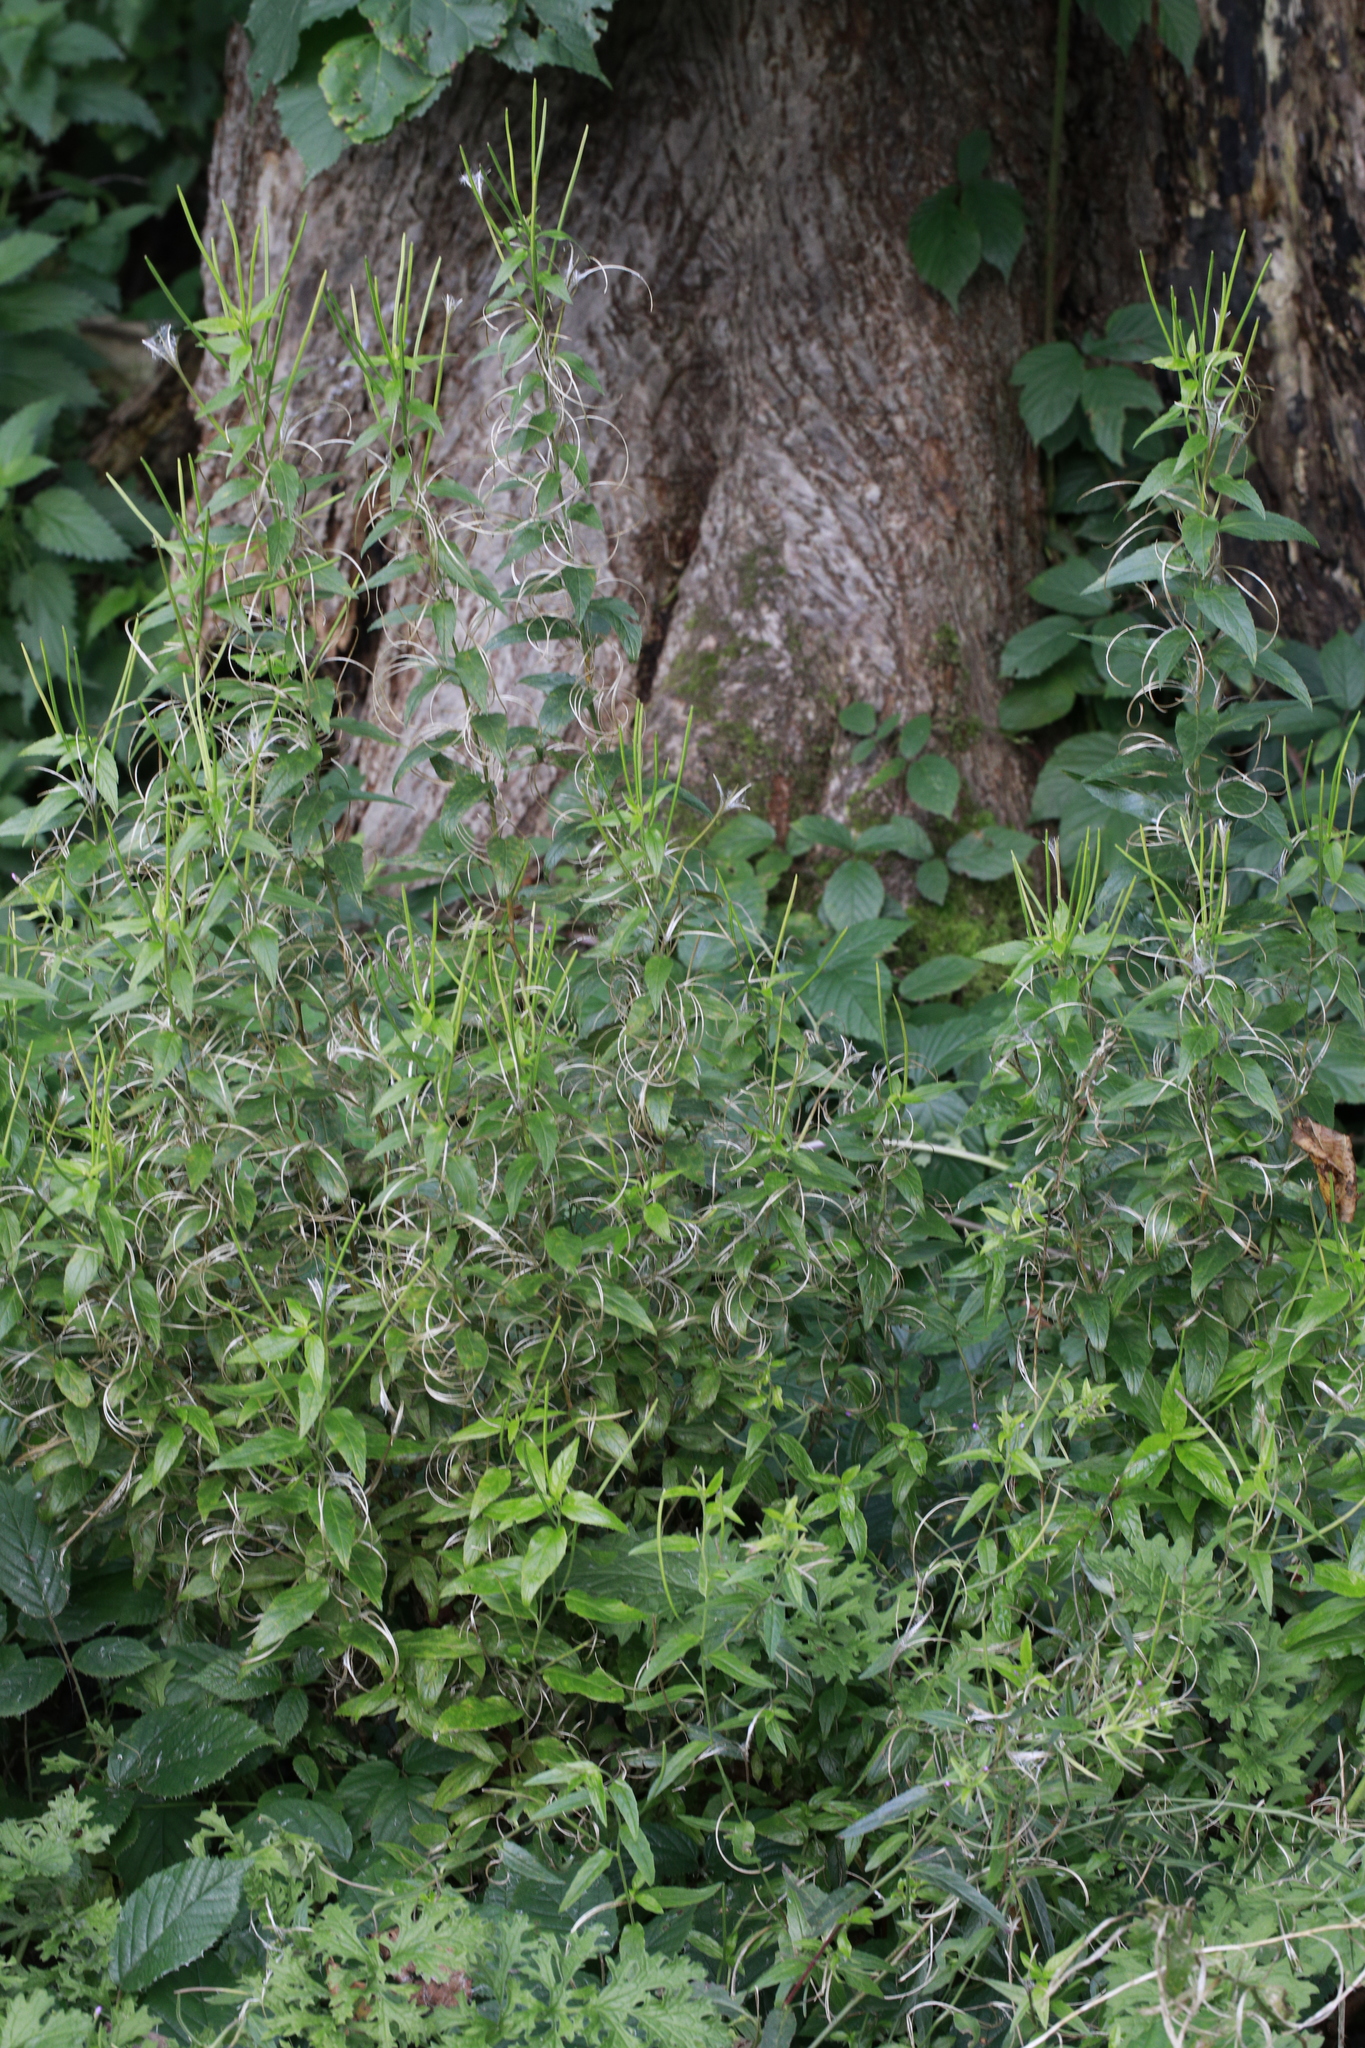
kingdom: Plantae
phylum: Tracheophyta
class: Magnoliopsida
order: Myrtales
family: Onagraceae
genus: Epilobium
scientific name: Epilobium montanum
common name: Broad-leaved willowherb
